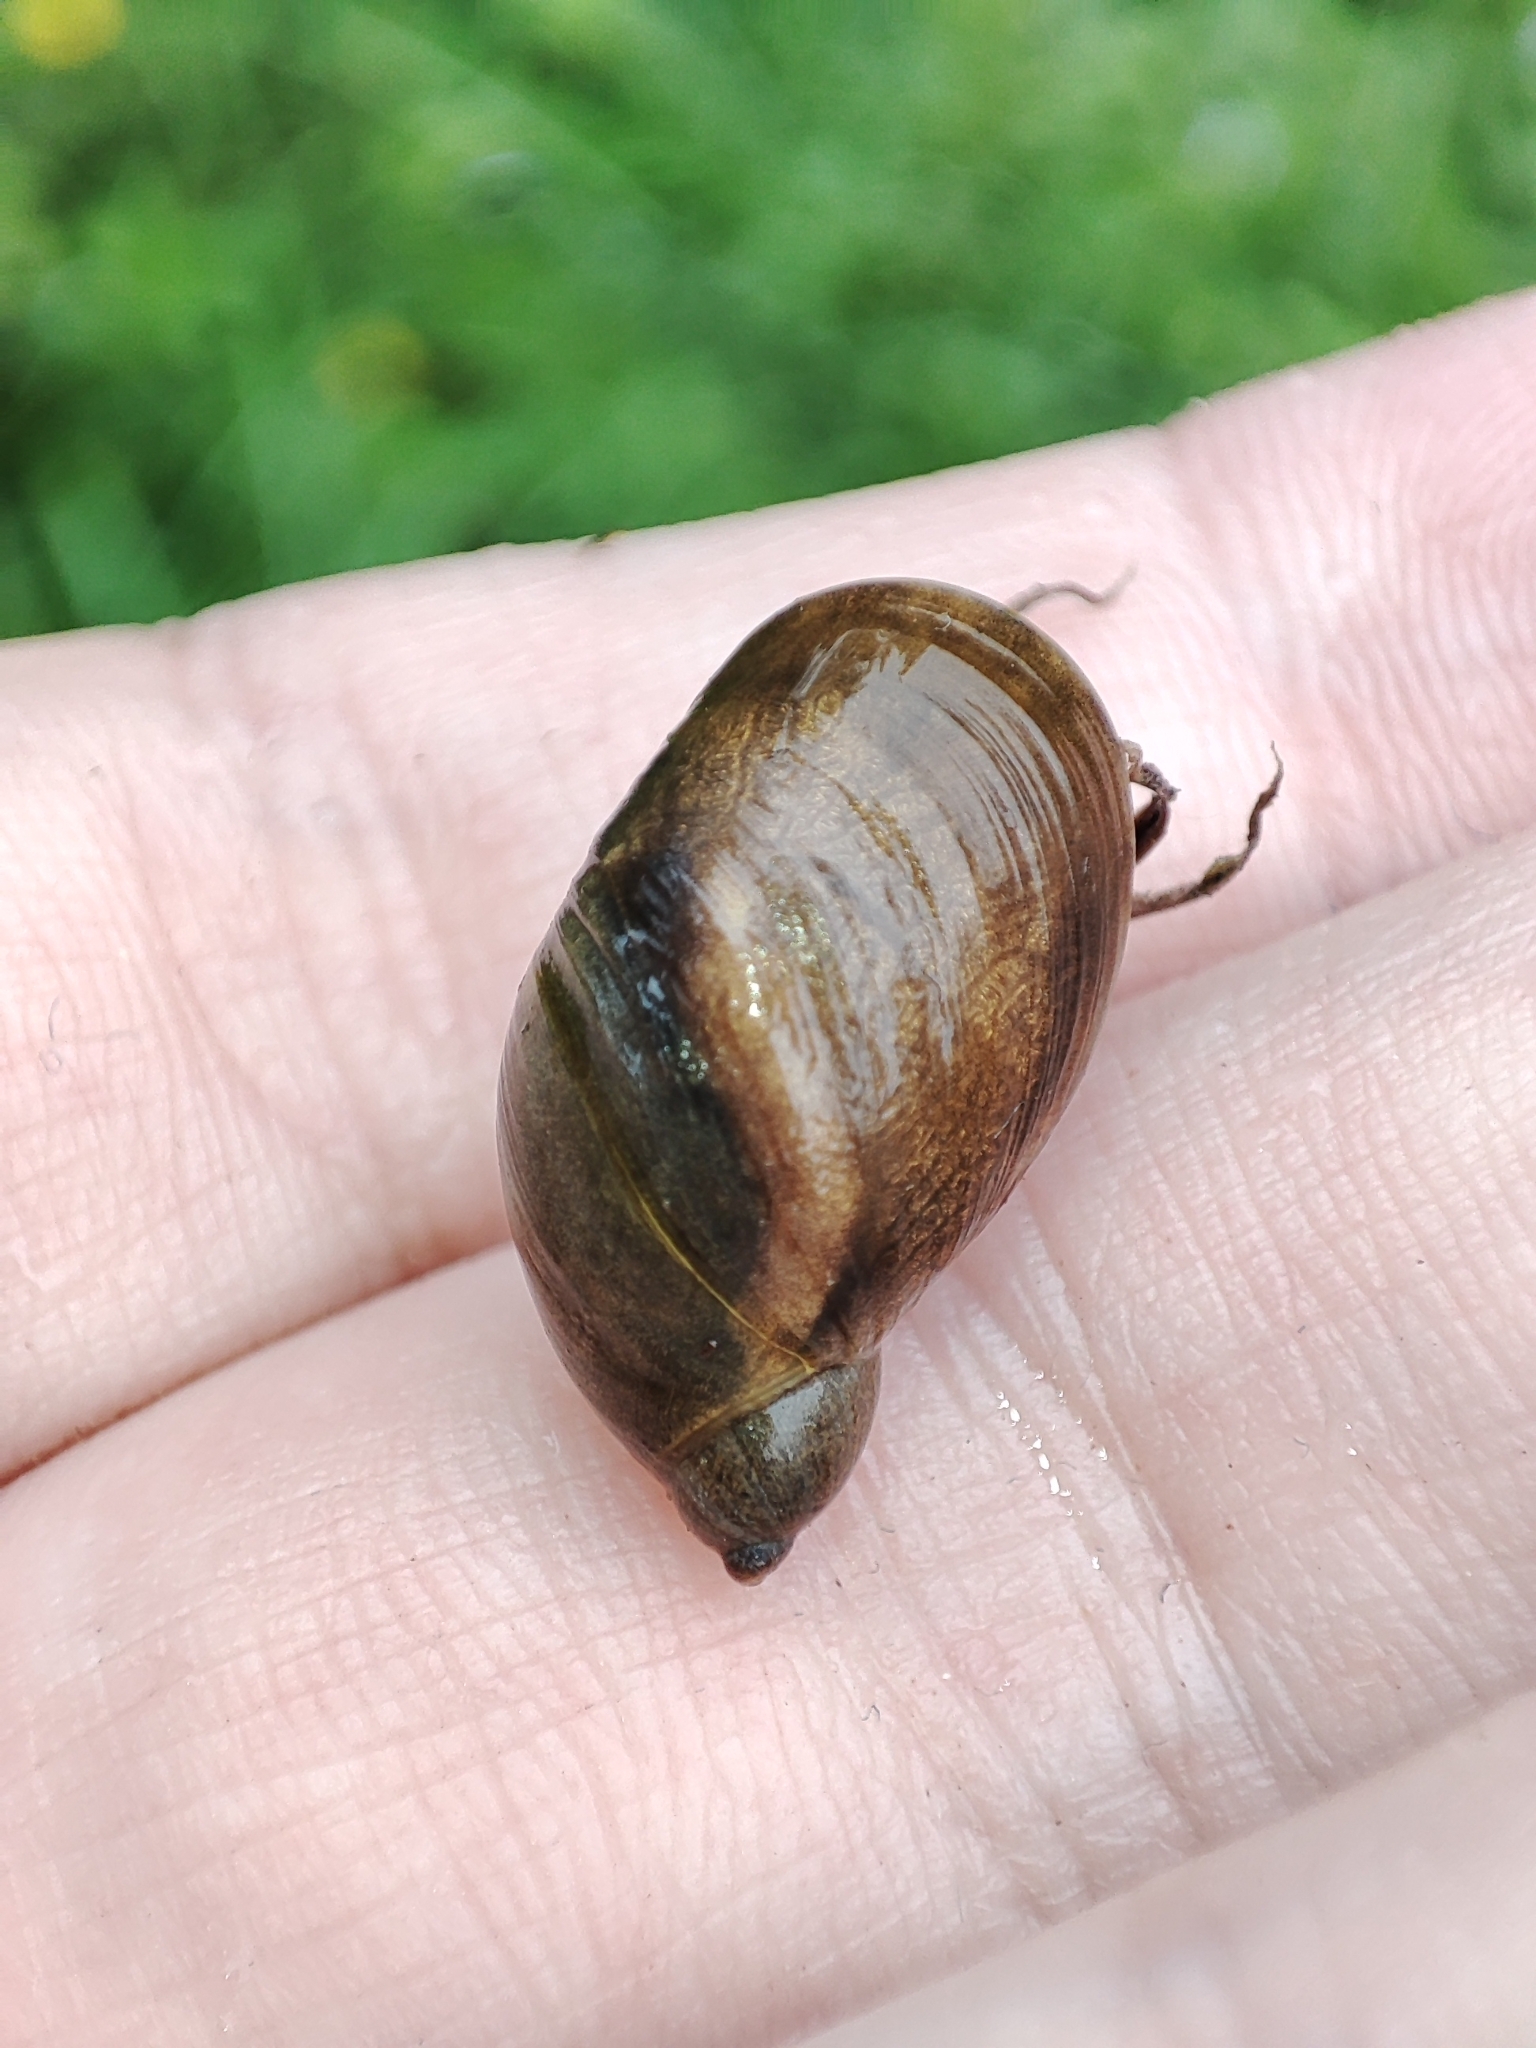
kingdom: Animalia
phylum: Mollusca
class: Gastropoda
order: Stylommatophora
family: Succineidae
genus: Succinea
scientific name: Succinea putris
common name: European ambersnail
